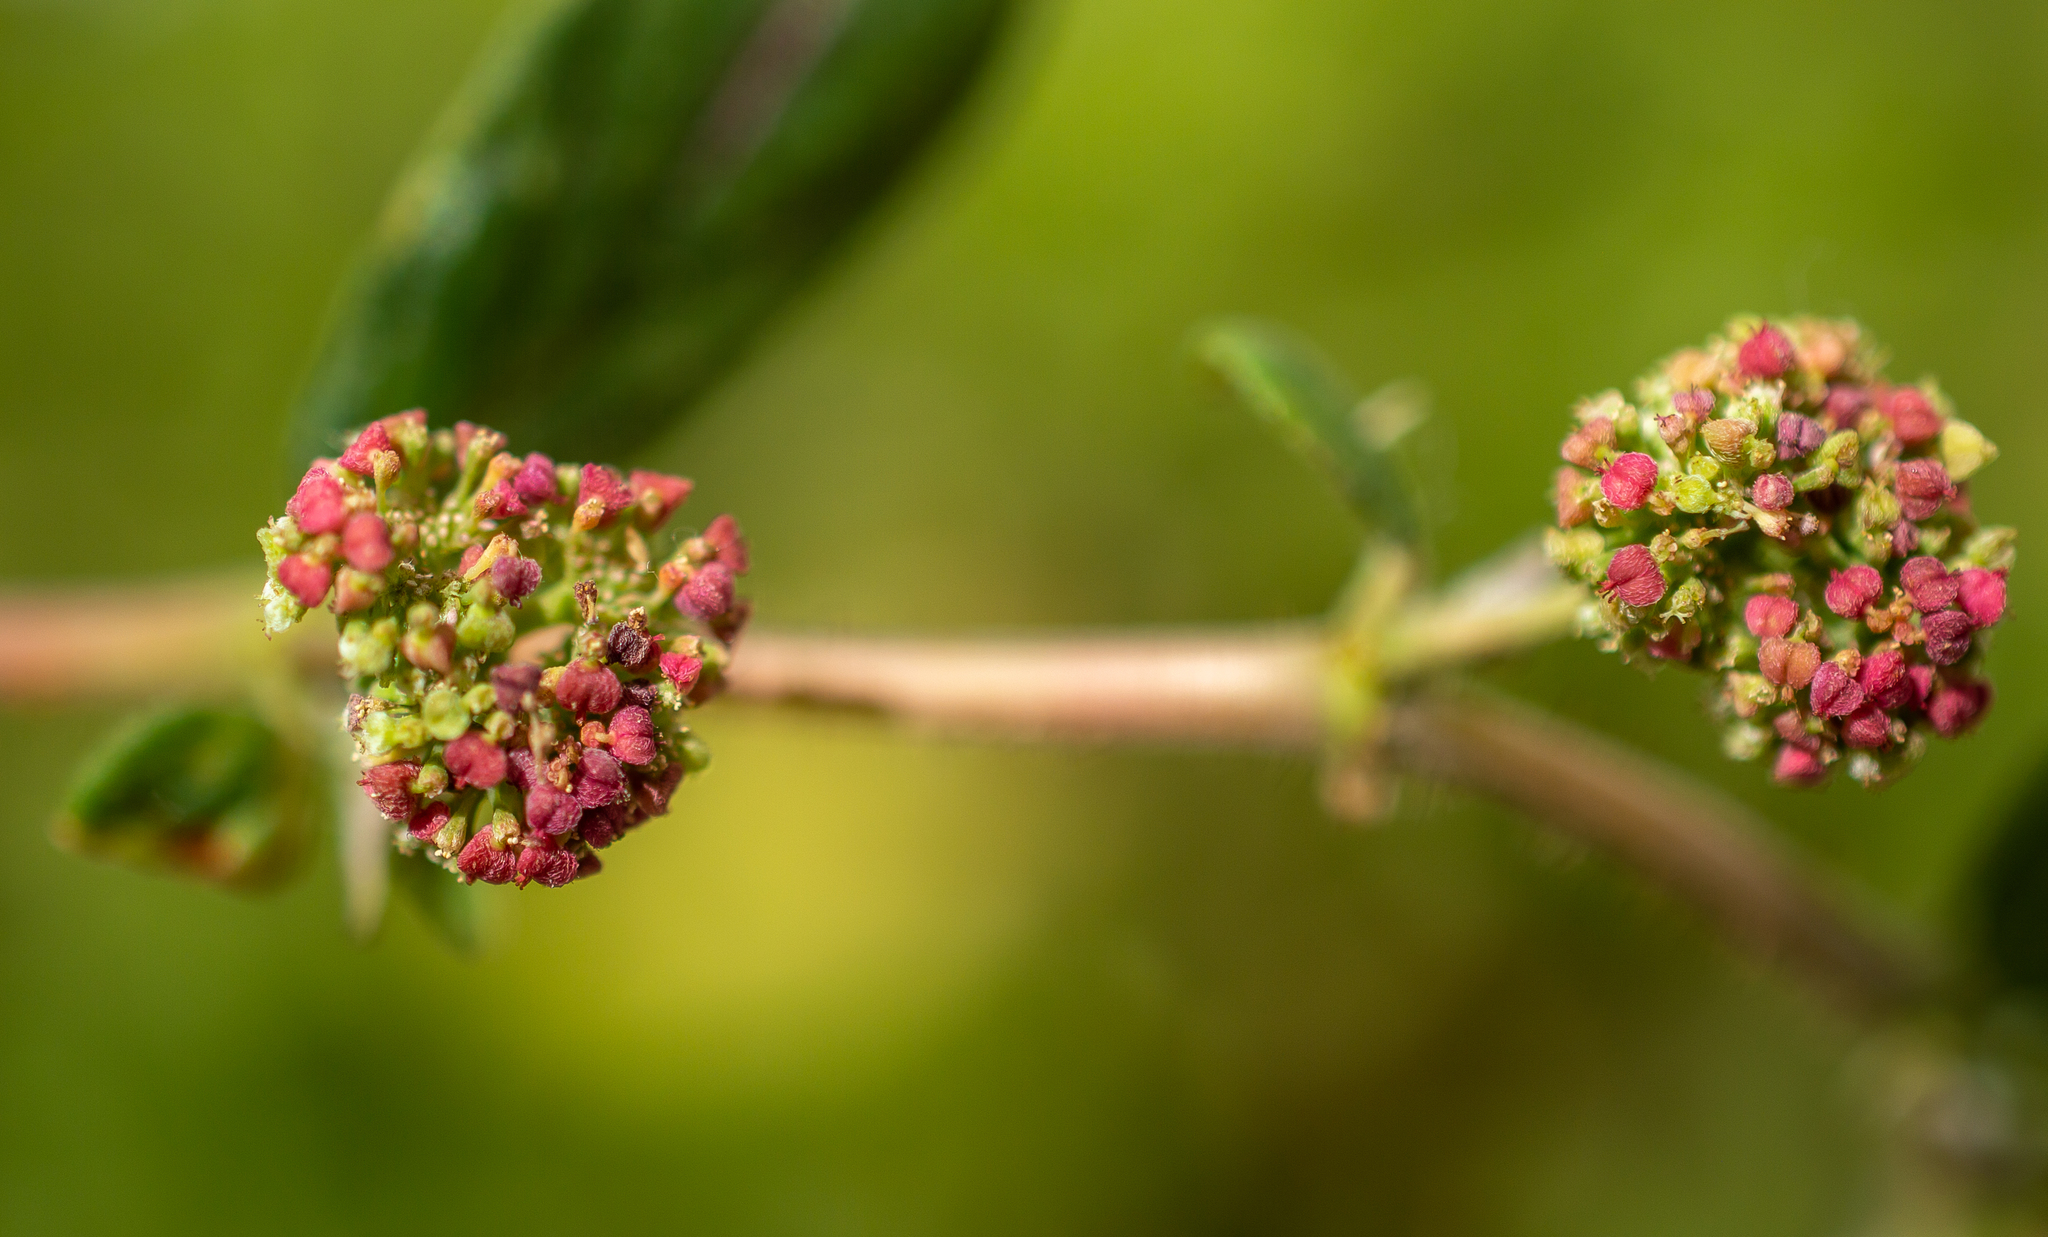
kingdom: Plantae
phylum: Tracheophyta
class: Magnoliopsida
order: Malpighiales
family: Euphorbiaceae
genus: Euphorbia
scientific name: Euphorbia hirta
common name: Pillpod sandmat
